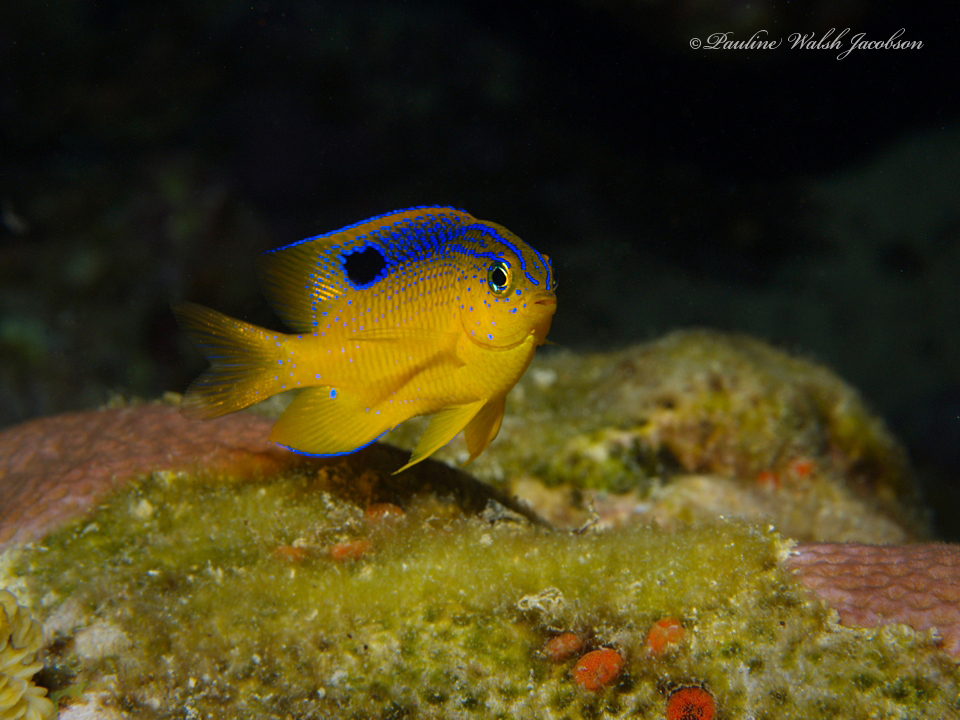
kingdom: Animalia
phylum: Chordata
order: Perciformes
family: Pomacentridae
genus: Stegastes
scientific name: Stegastes diencaeus
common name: Longfin damselfish
